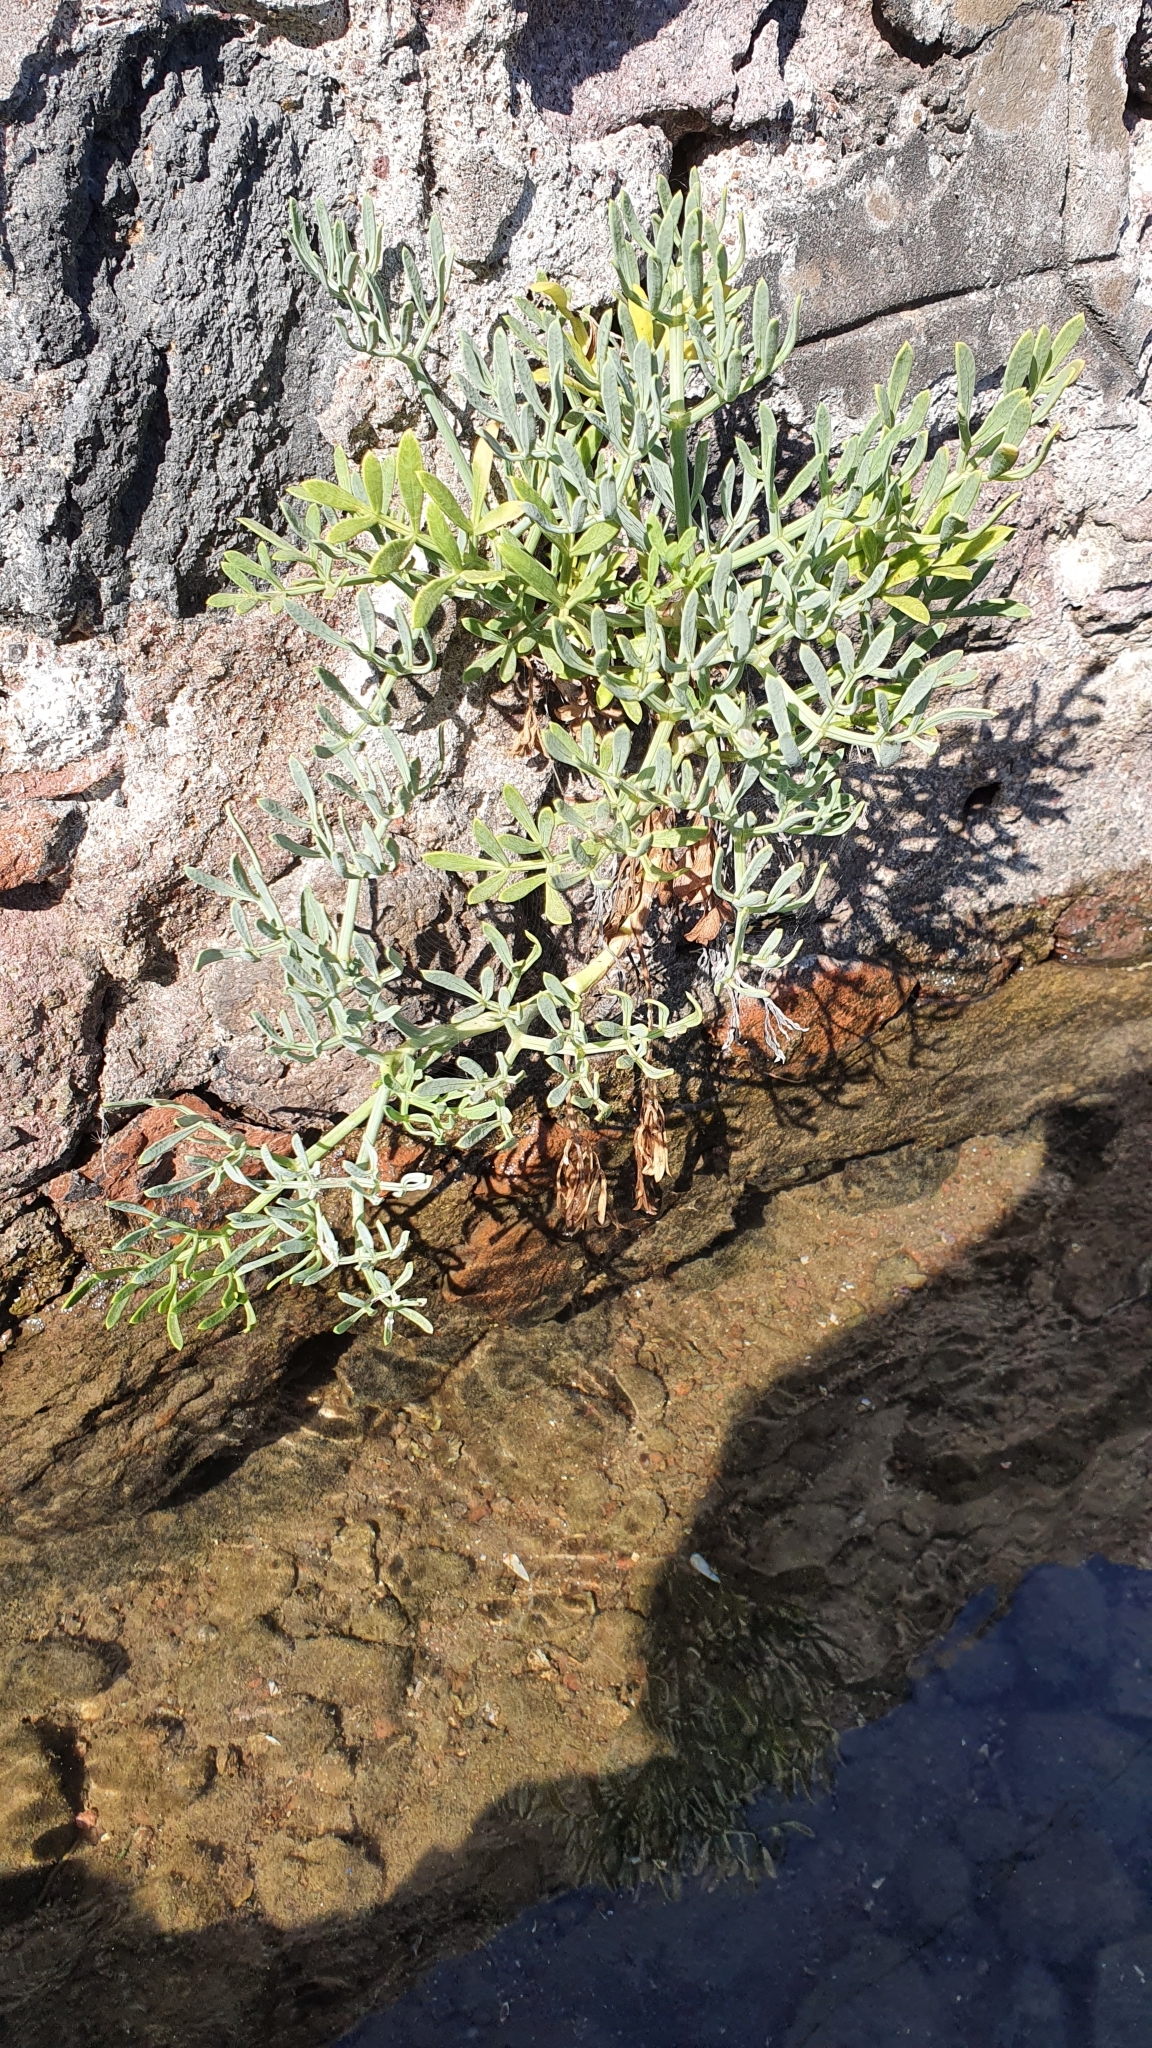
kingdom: Plantae
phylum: Tracheophyta
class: Magnoliopsida
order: Apiales
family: Apiaceae
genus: Crithmum
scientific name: Crithmum maritimum
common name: Rock samphire
